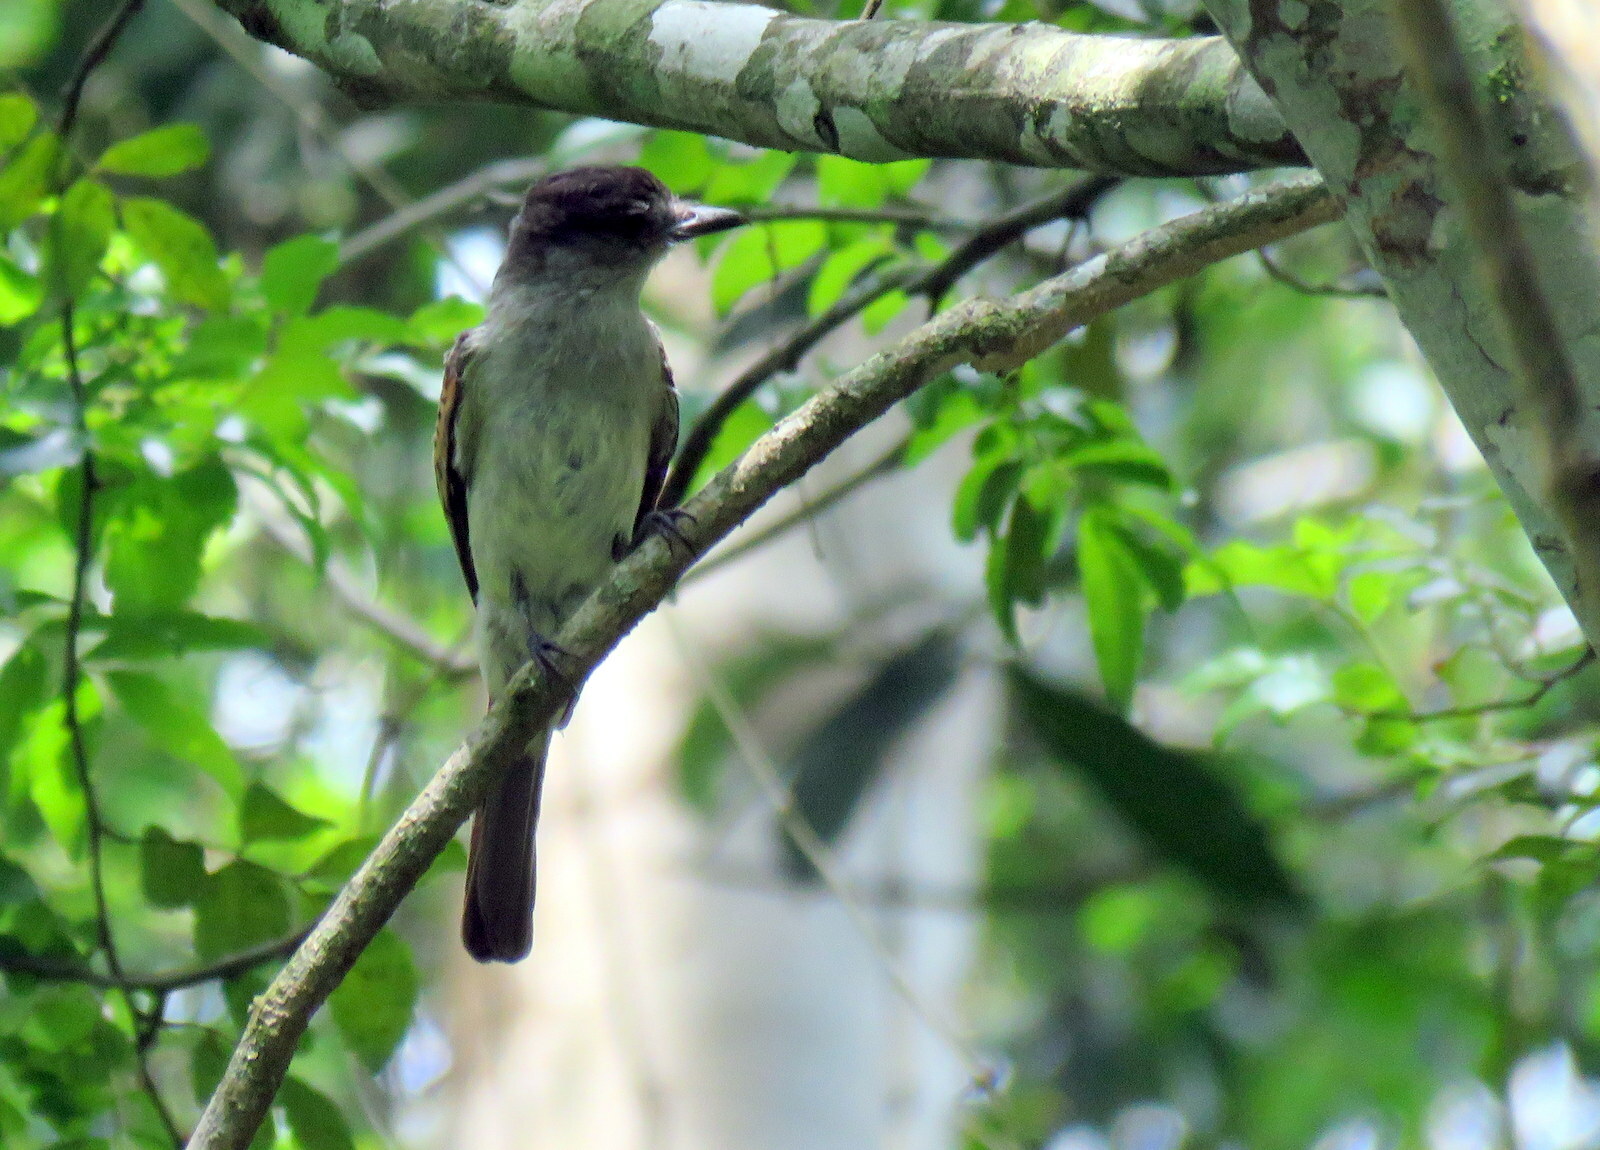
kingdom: Animalia
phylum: Chordata
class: Aves
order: Passeriformes
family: Tyrannidae
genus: Sirystes
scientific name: Sirystes sibilator
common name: Sirystes
